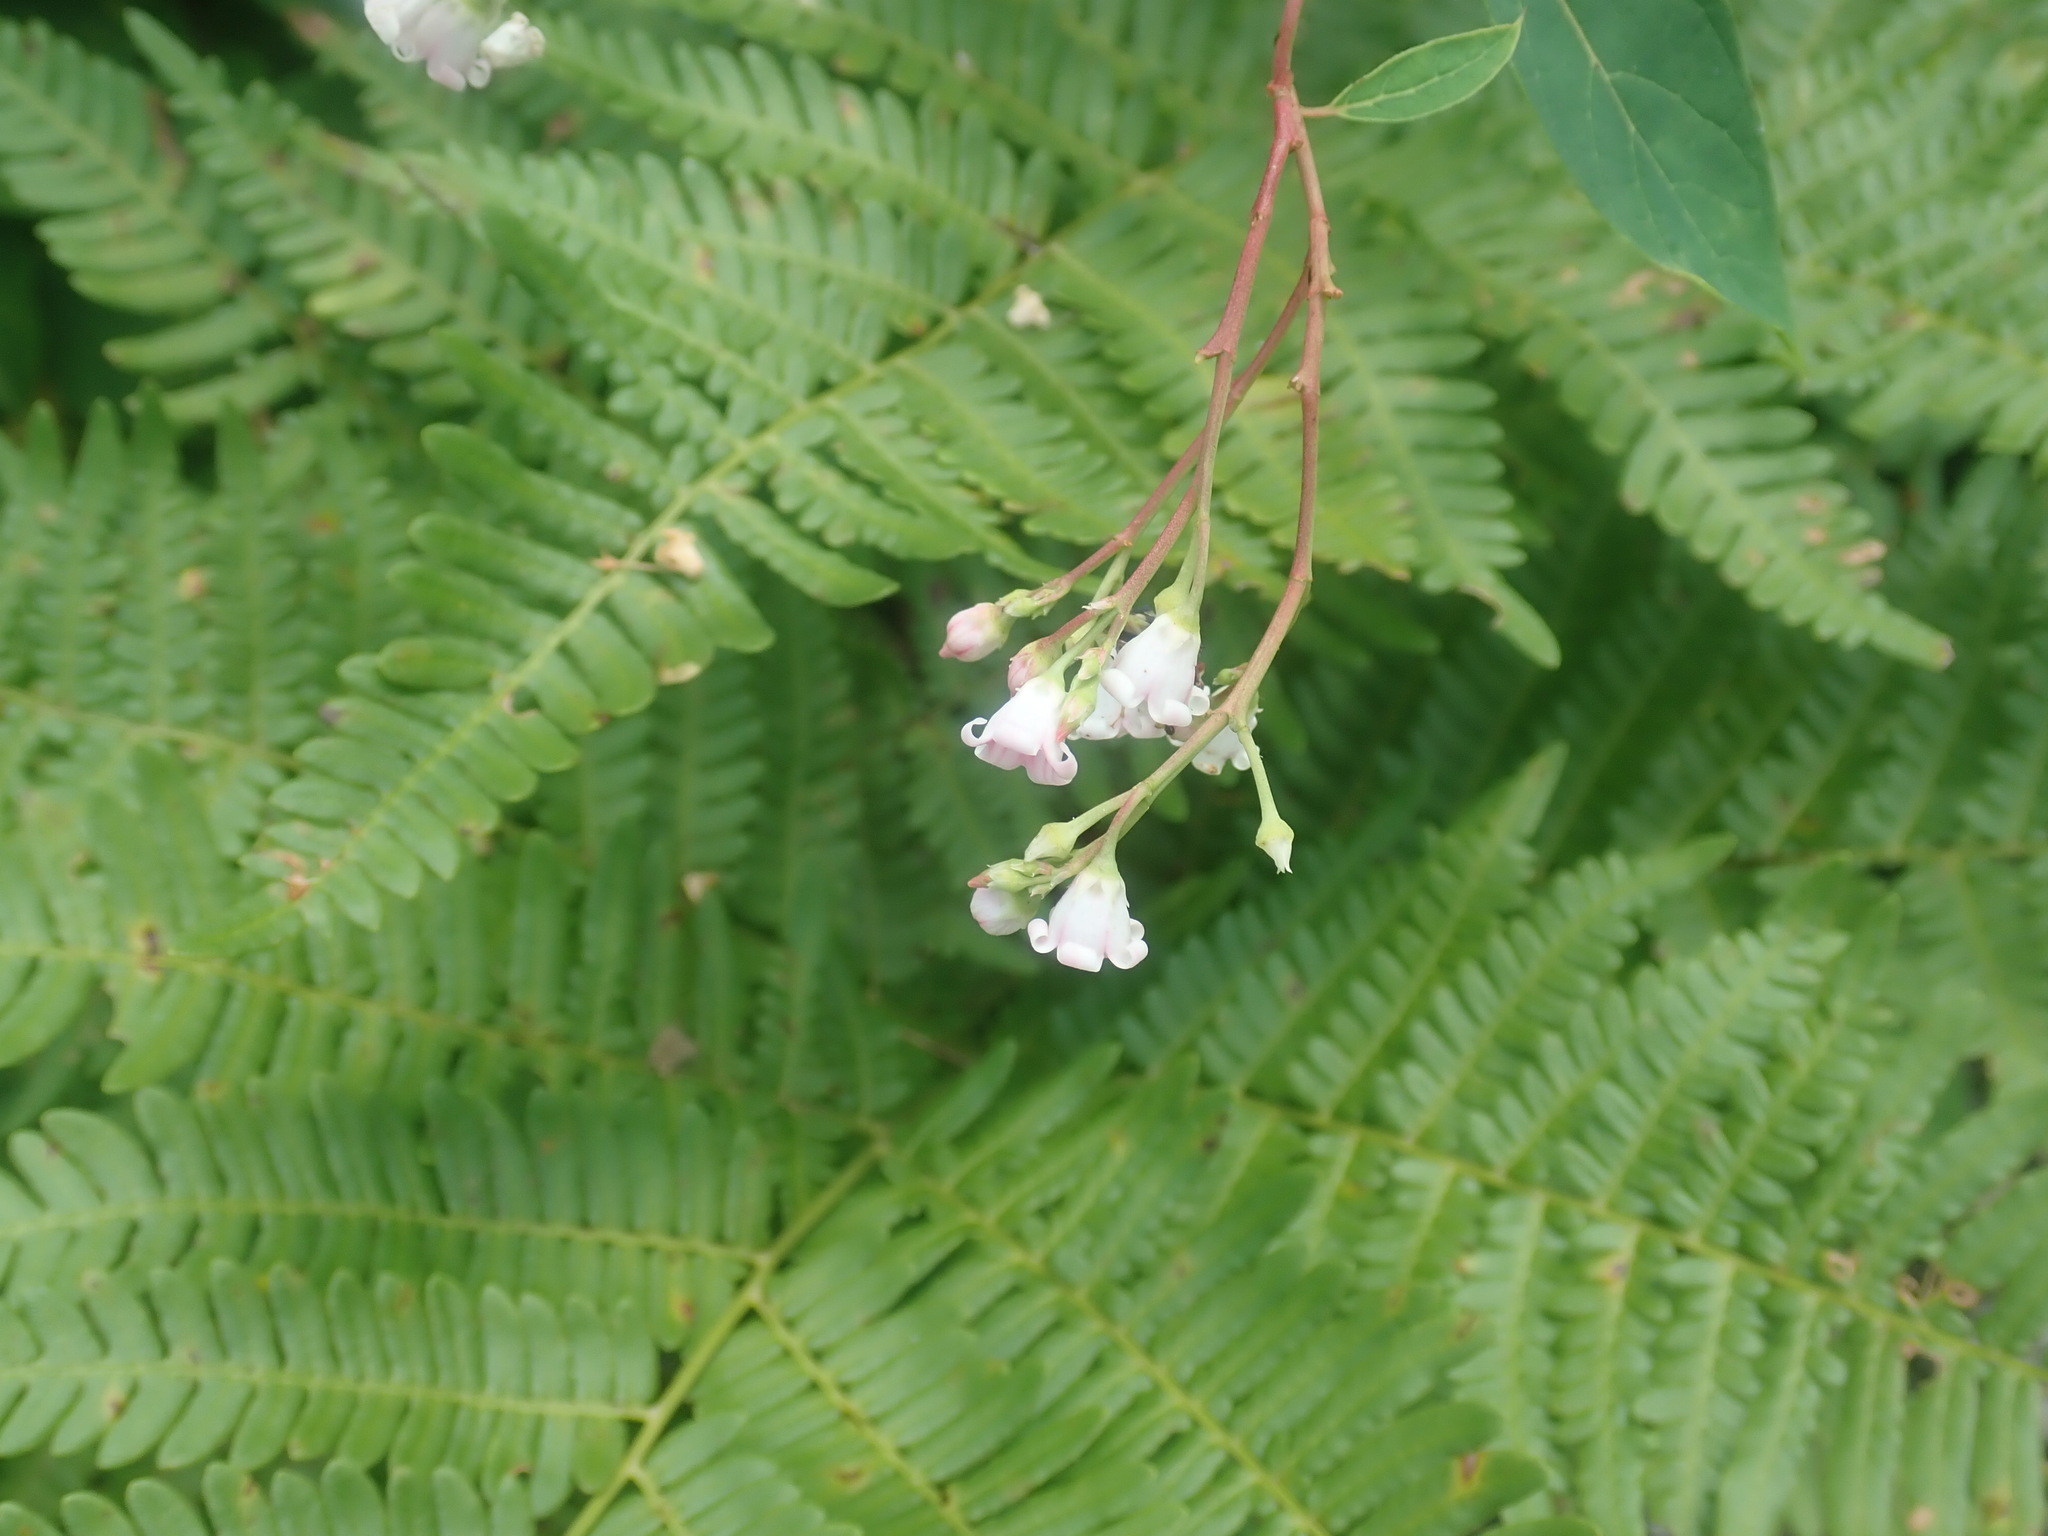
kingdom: Plantae
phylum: Tracheophyta
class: Magnoliopsida
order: Gentianales
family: Apocynaceae
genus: Apocynum
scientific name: Apocynum androsaemifolium
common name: Spreading dogbane
